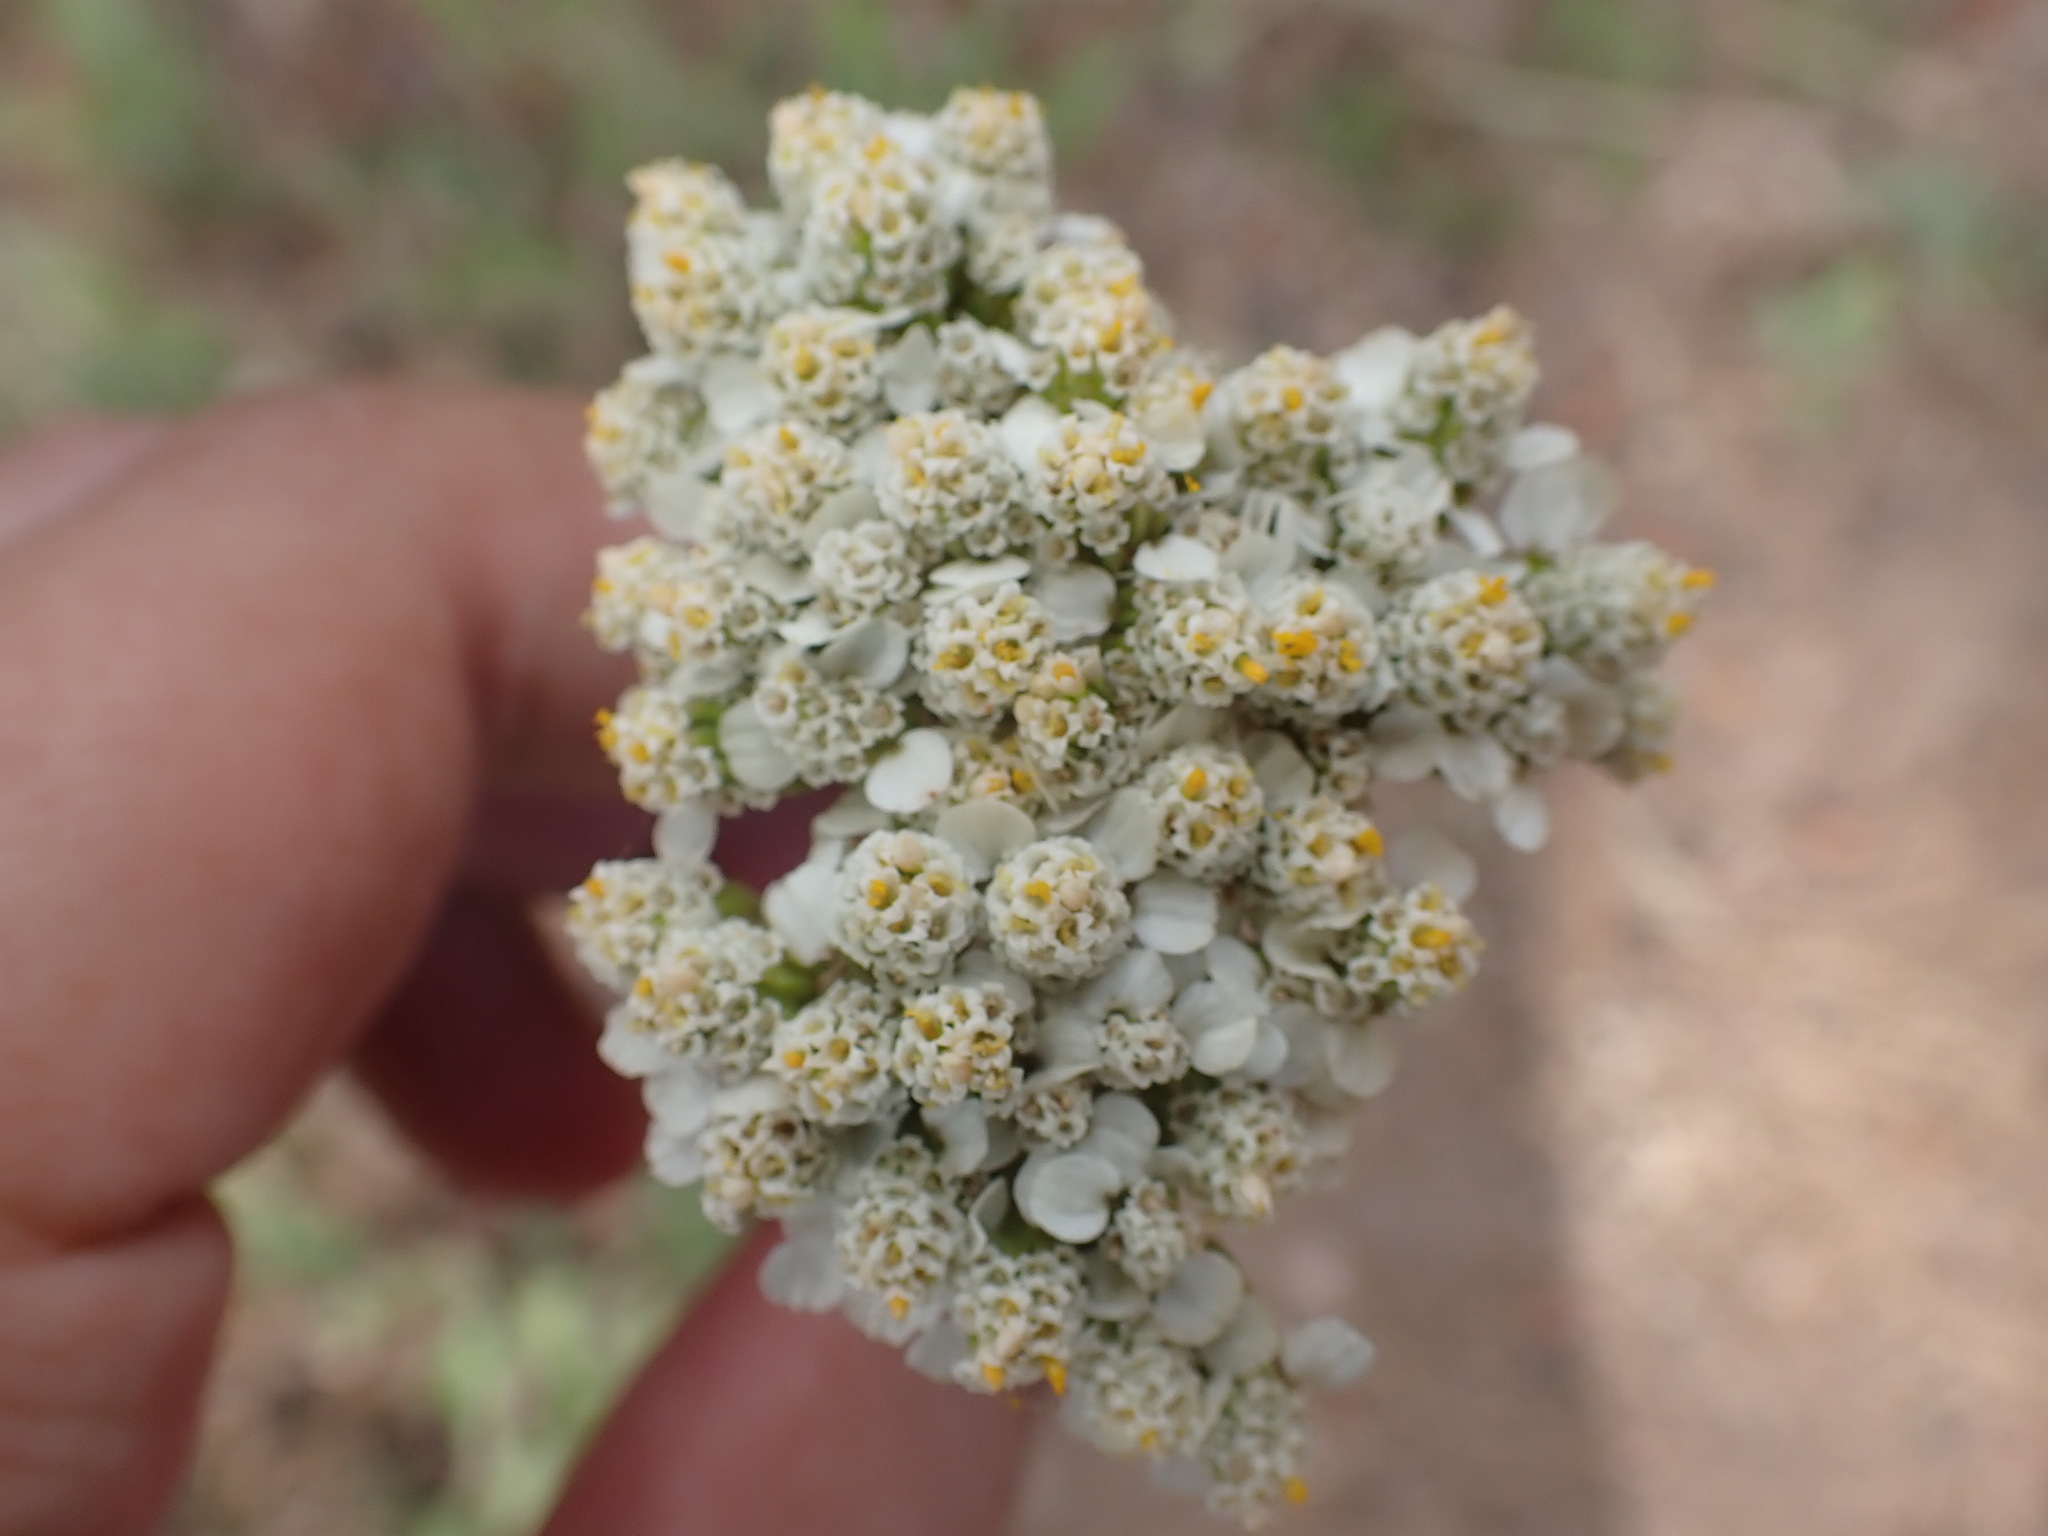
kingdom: Plantae
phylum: Tracheophyta
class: Magnoliopsida
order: Asterales
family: Asteraceae
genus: Achillea
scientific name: Achillea millefolium
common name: Yarrow
